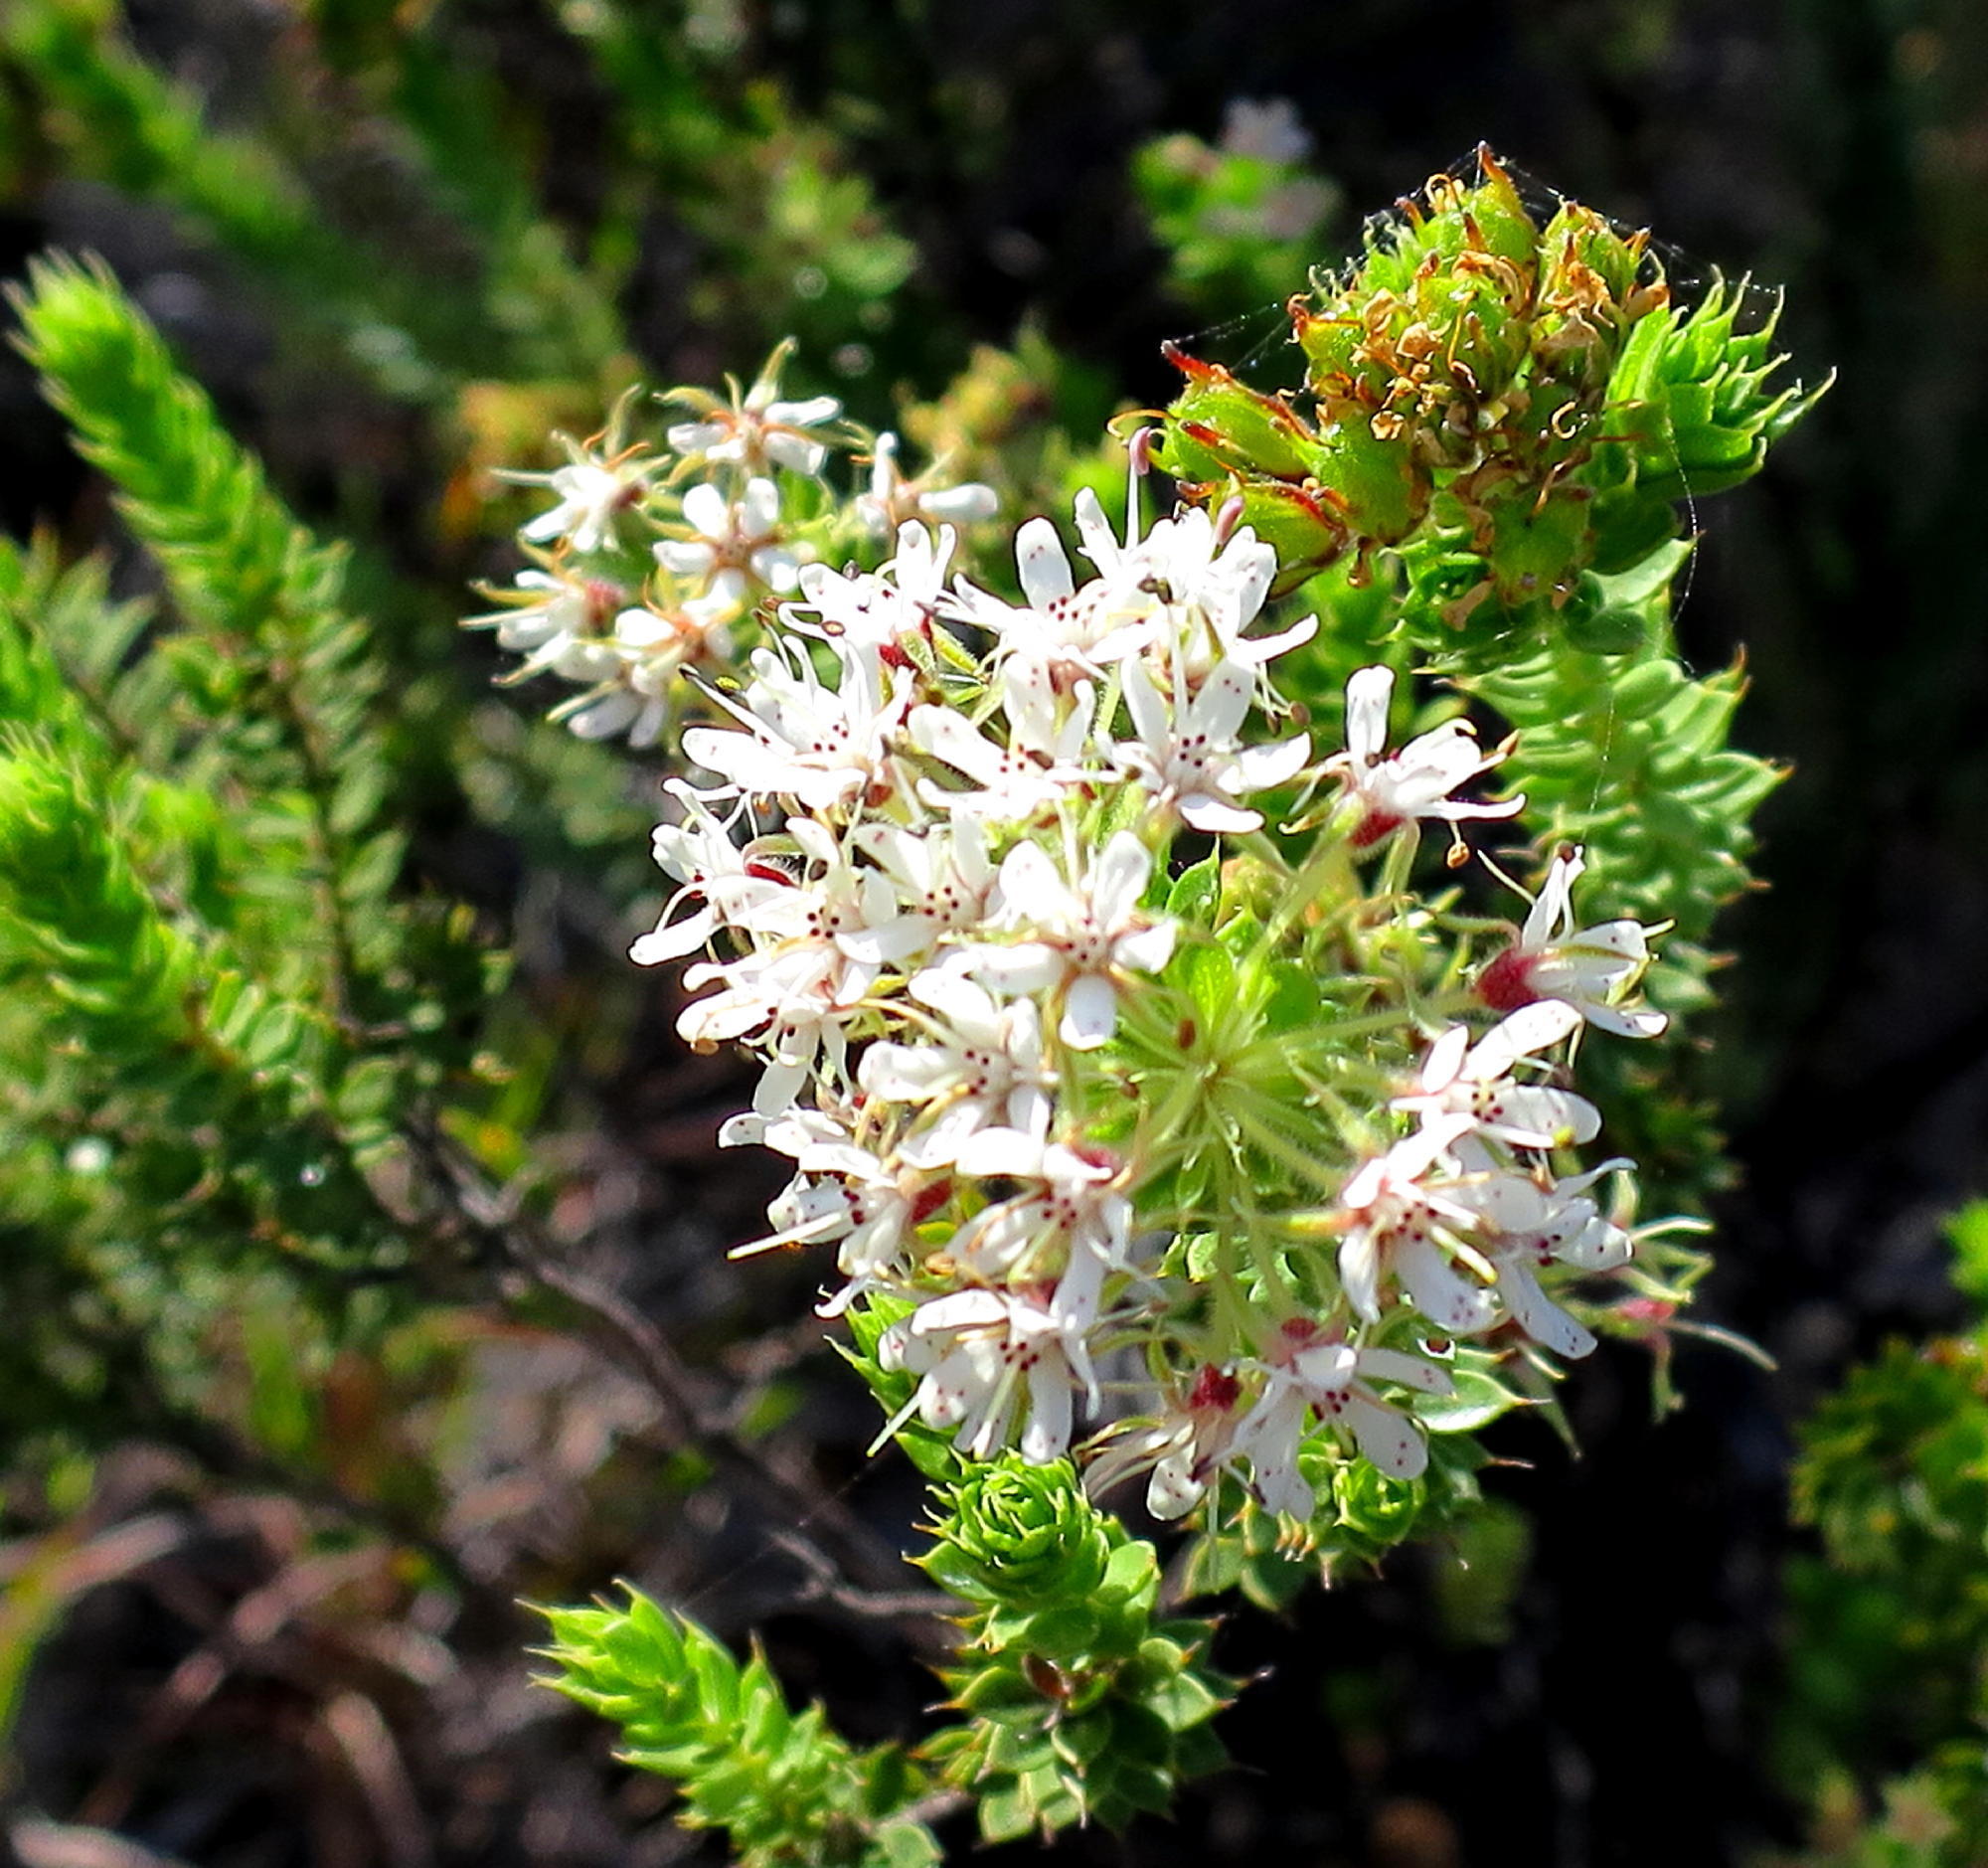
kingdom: Plantae
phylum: Tracheophyta
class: Magnoliopsida
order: Sapindales
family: Rutaceae
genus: Agathosma
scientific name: Agathosma mucronulata
